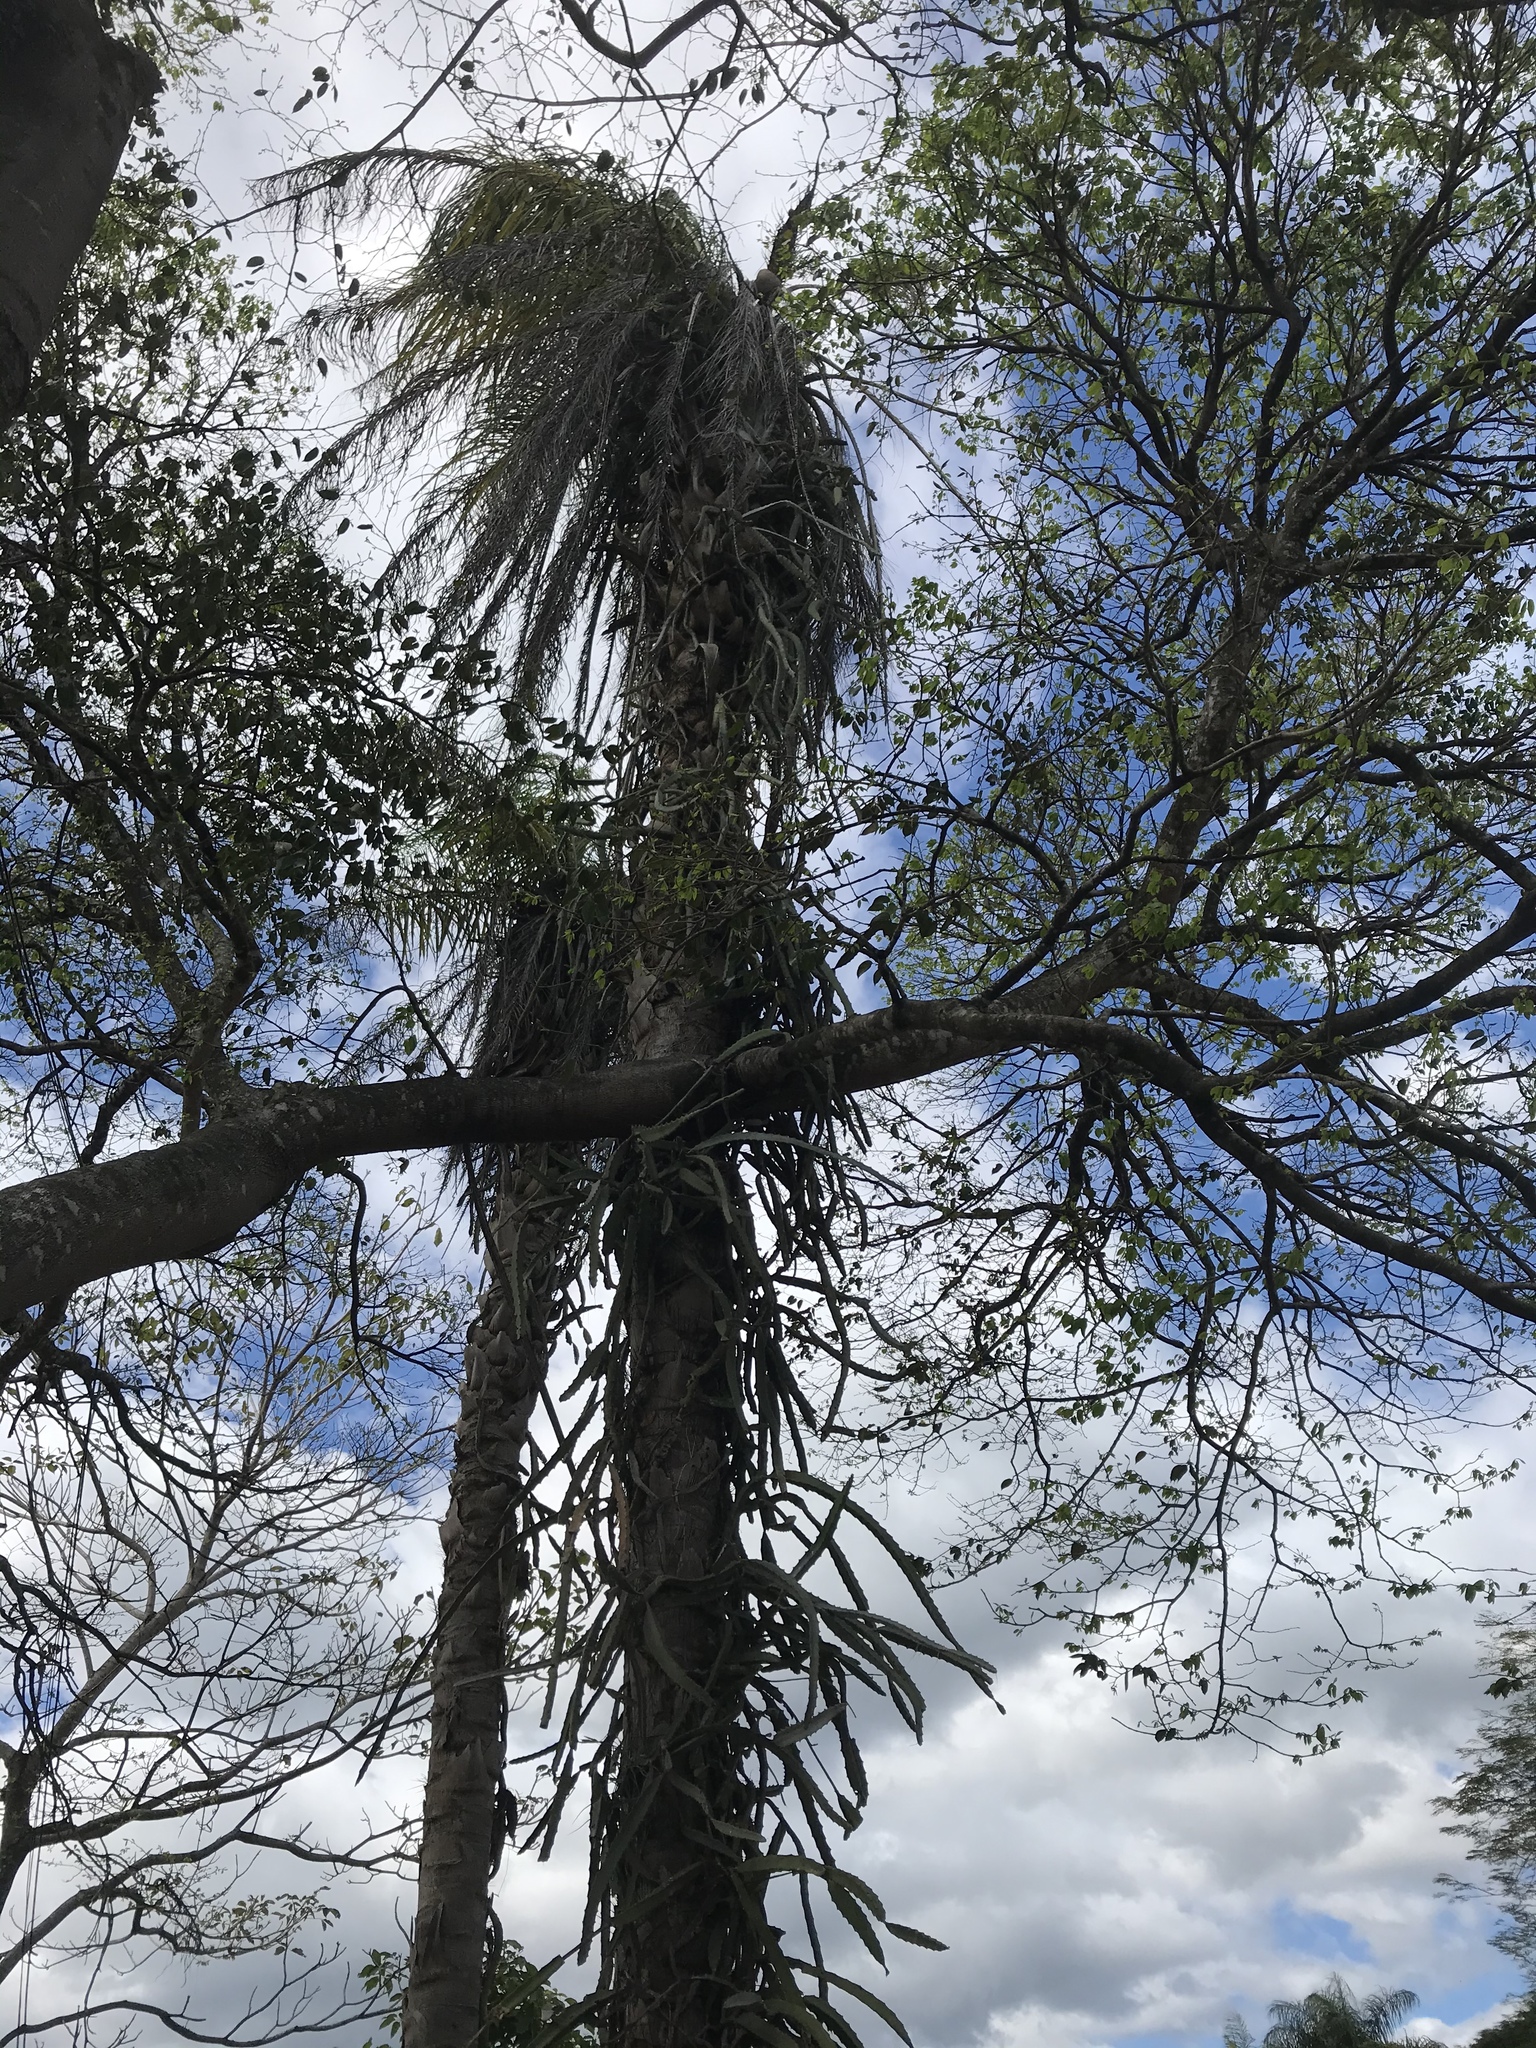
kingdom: Plantae
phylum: Tracheophyta
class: Liliopsida
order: Arecales
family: Arecaceae
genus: Acrocomia
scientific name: Acrocomia aculeata
